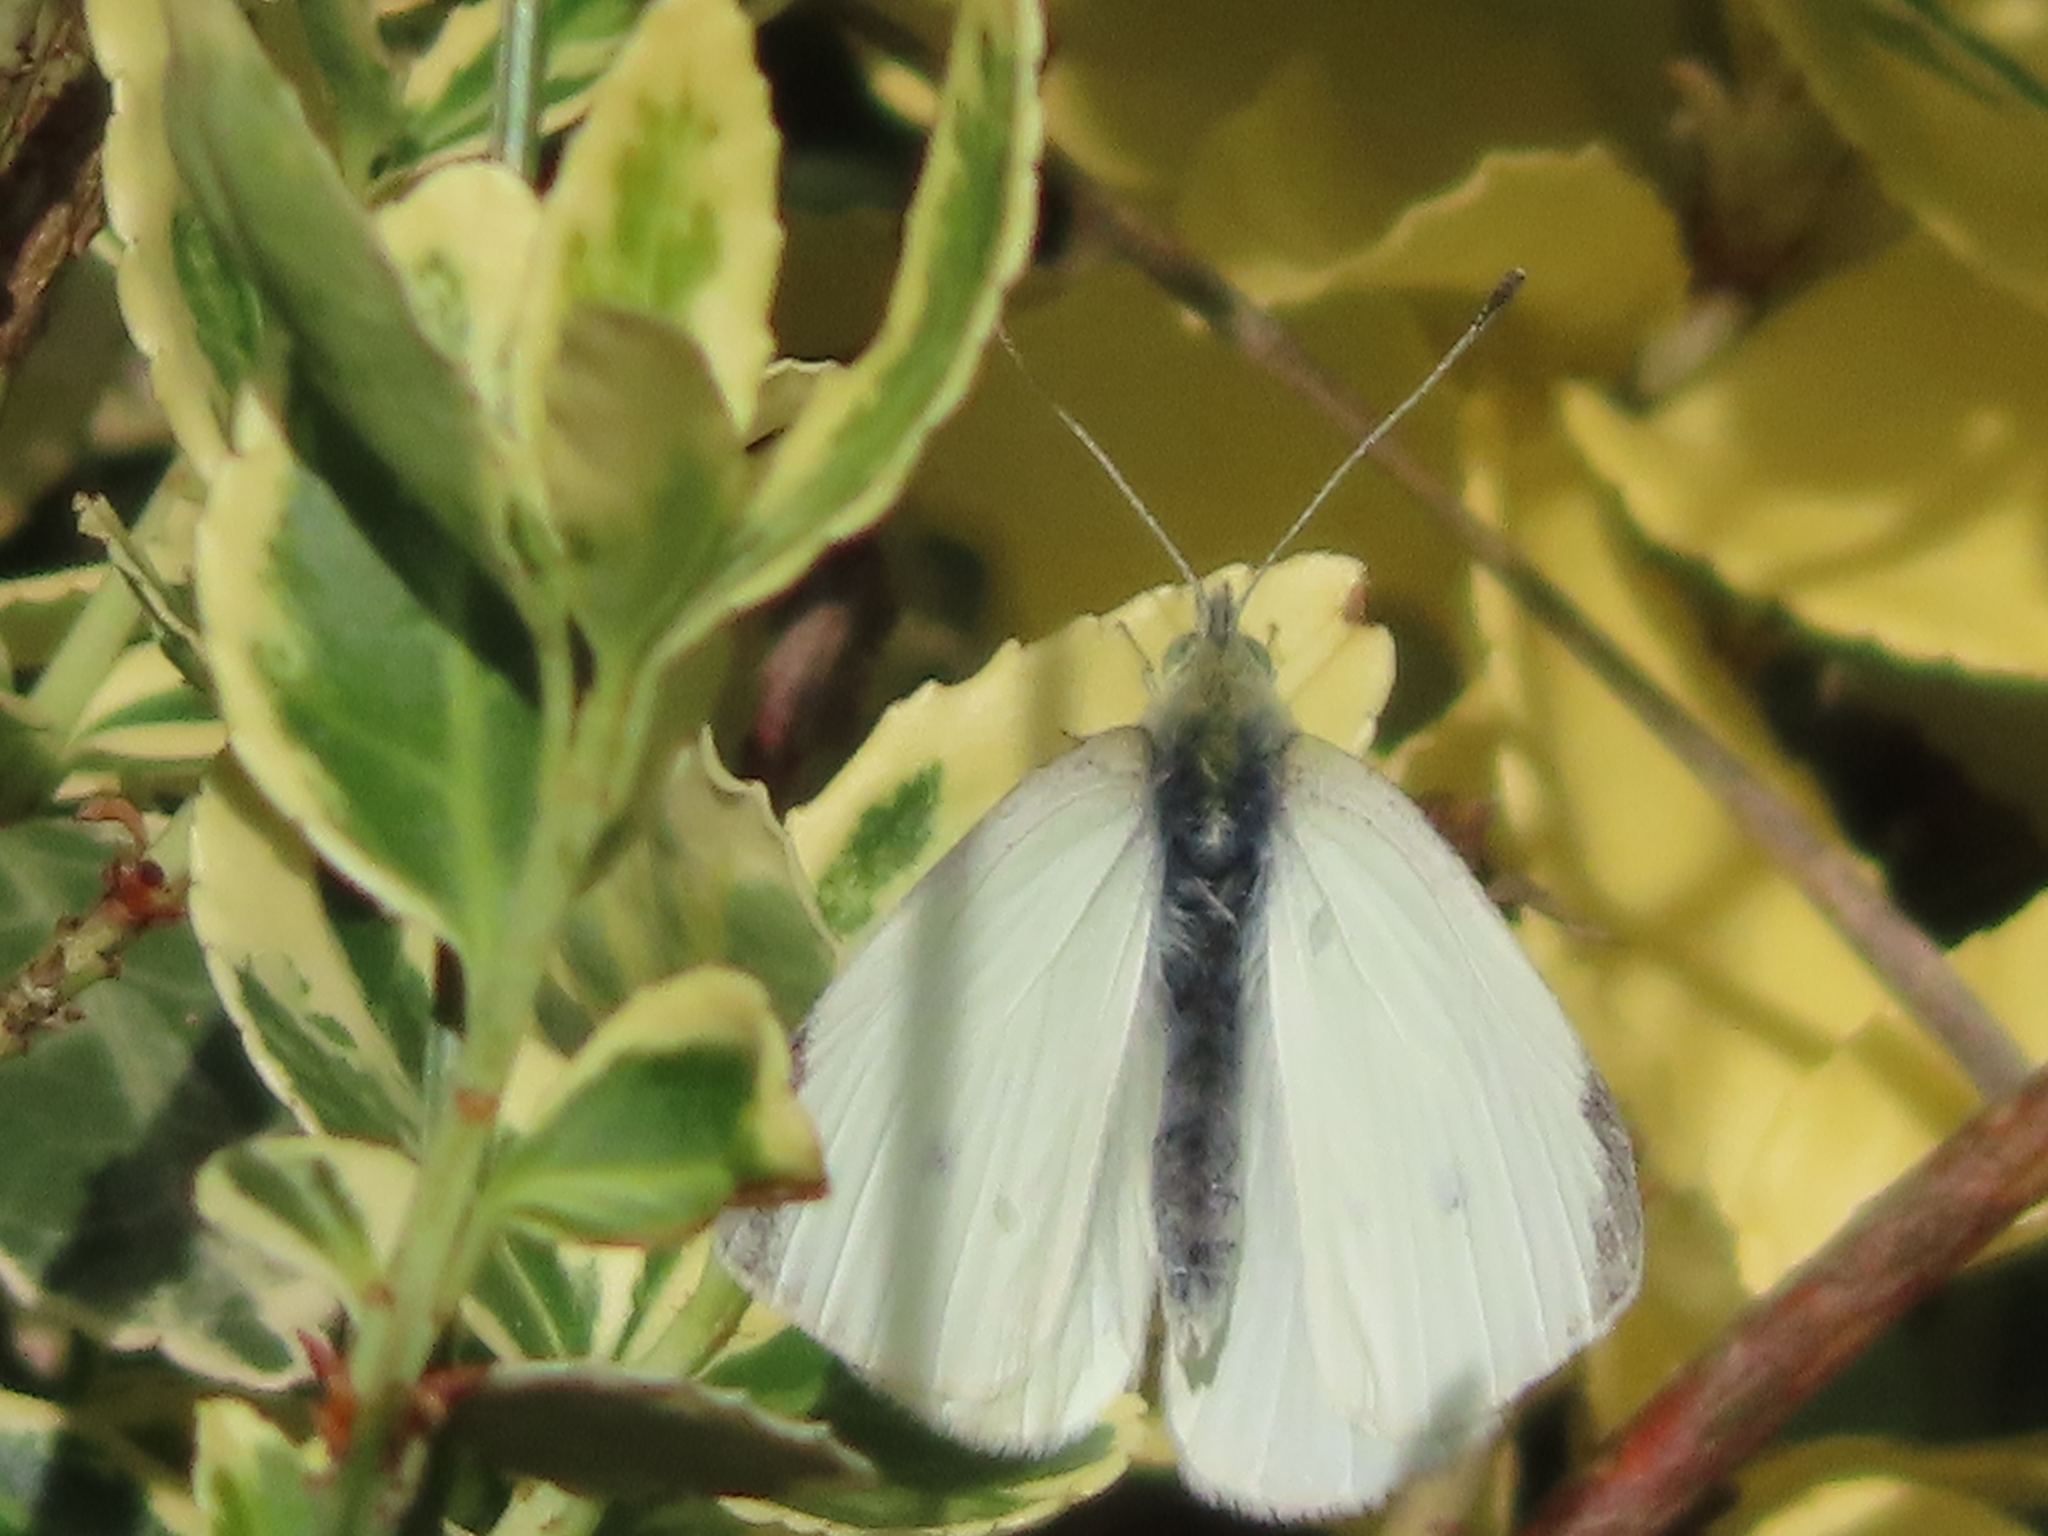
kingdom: Animalia
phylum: Arthropoda
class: Insecta
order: Lepidoptera
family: Pieridae
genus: Pieris
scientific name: Pieris rapae
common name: Small white
